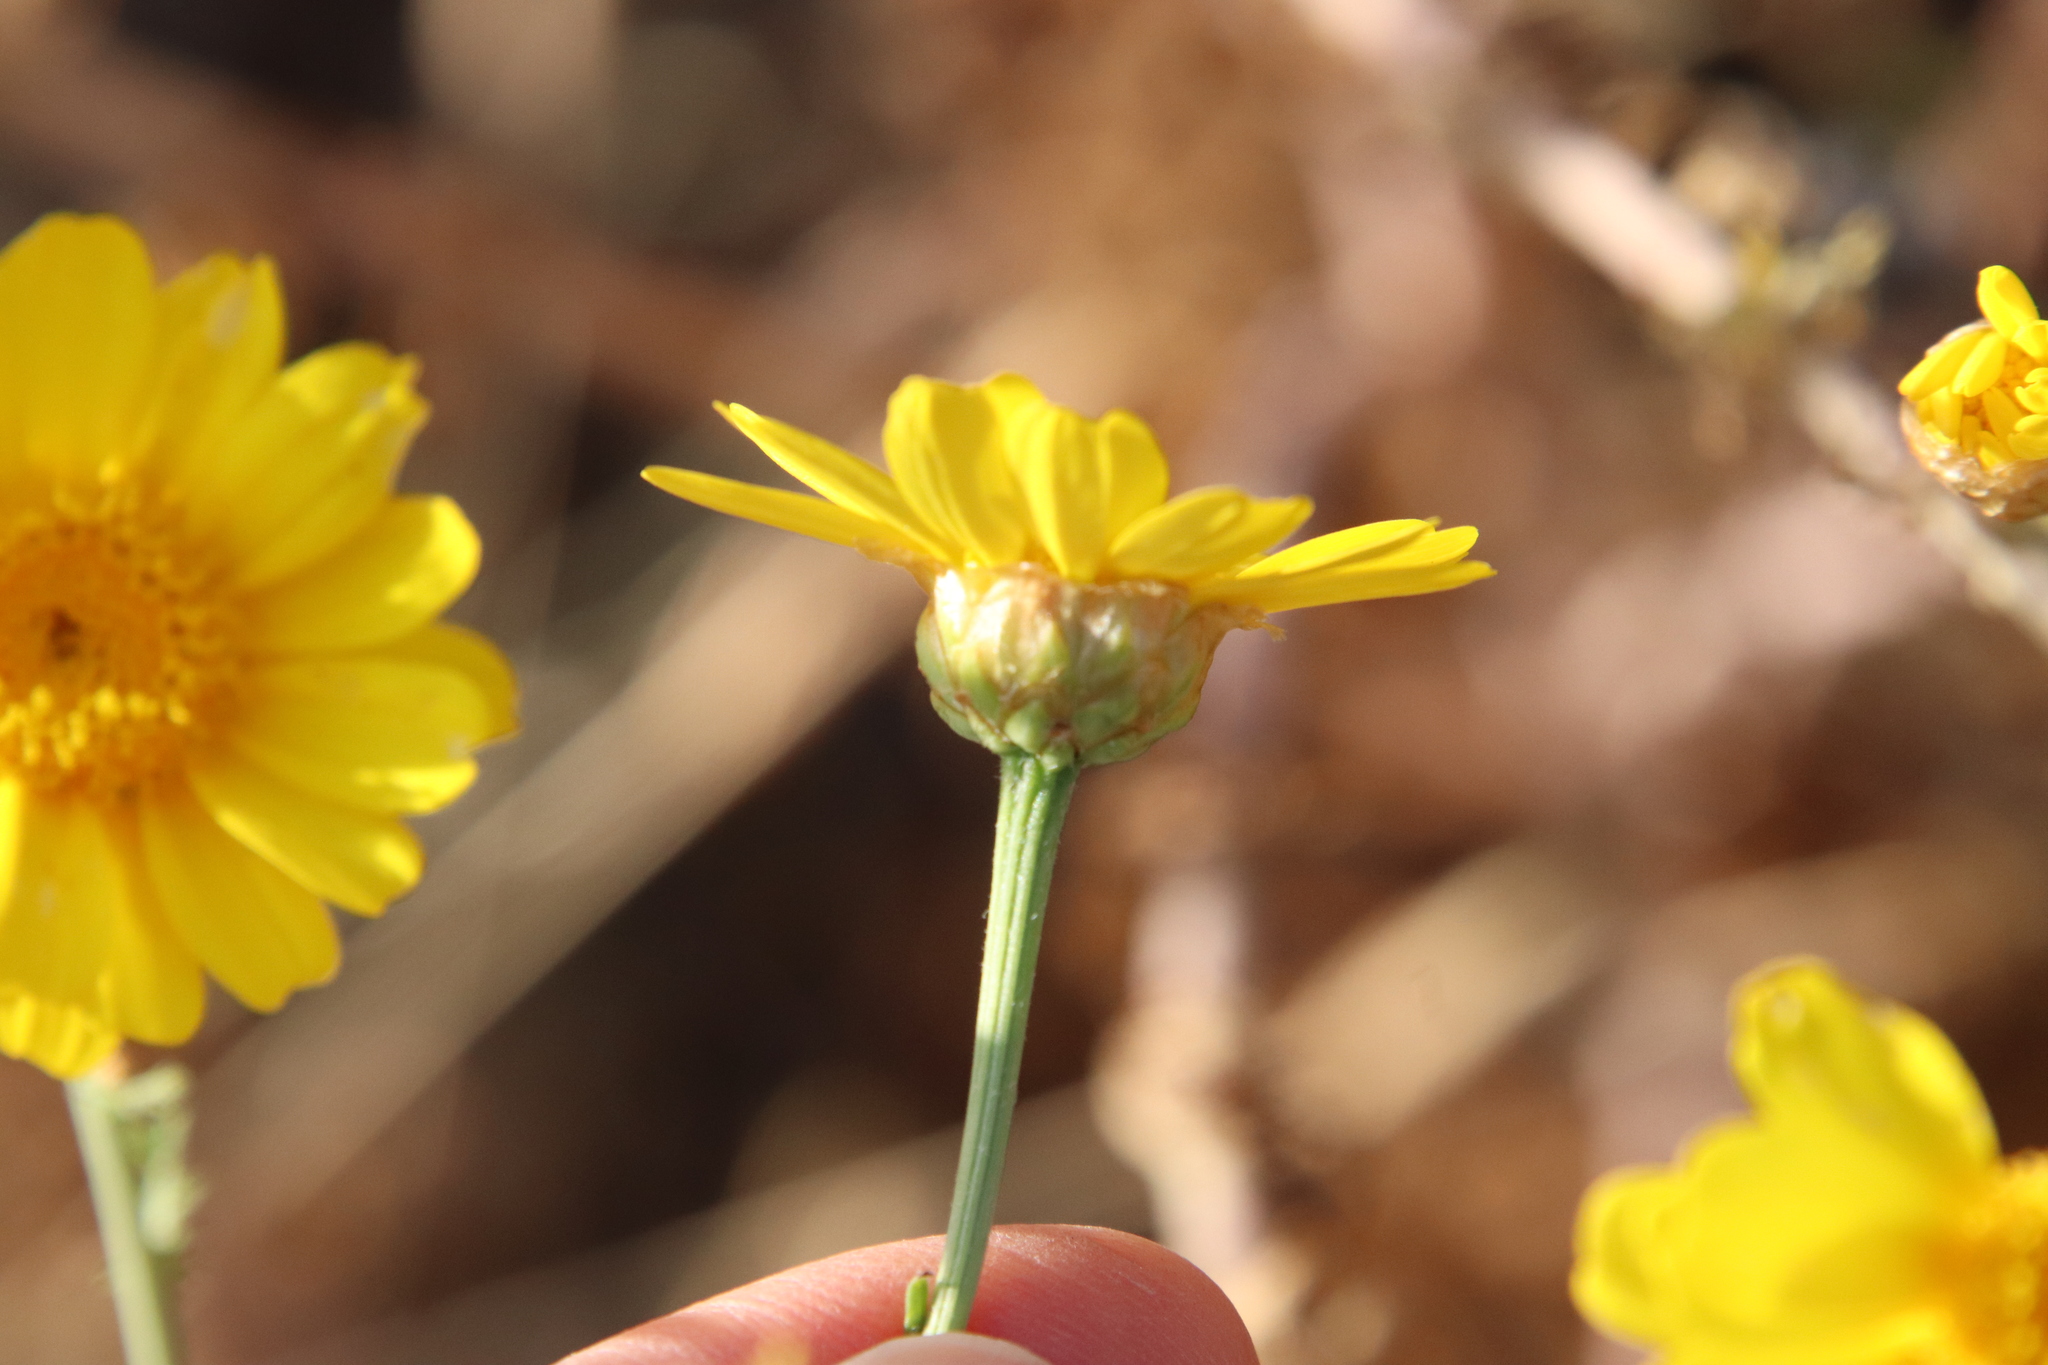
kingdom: Plantae
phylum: Tracheophyta
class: Magnoliopsida
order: Asterales
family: Asteraceae
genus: Glebionis
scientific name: Glebionis coronaria
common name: Crowndaisy
